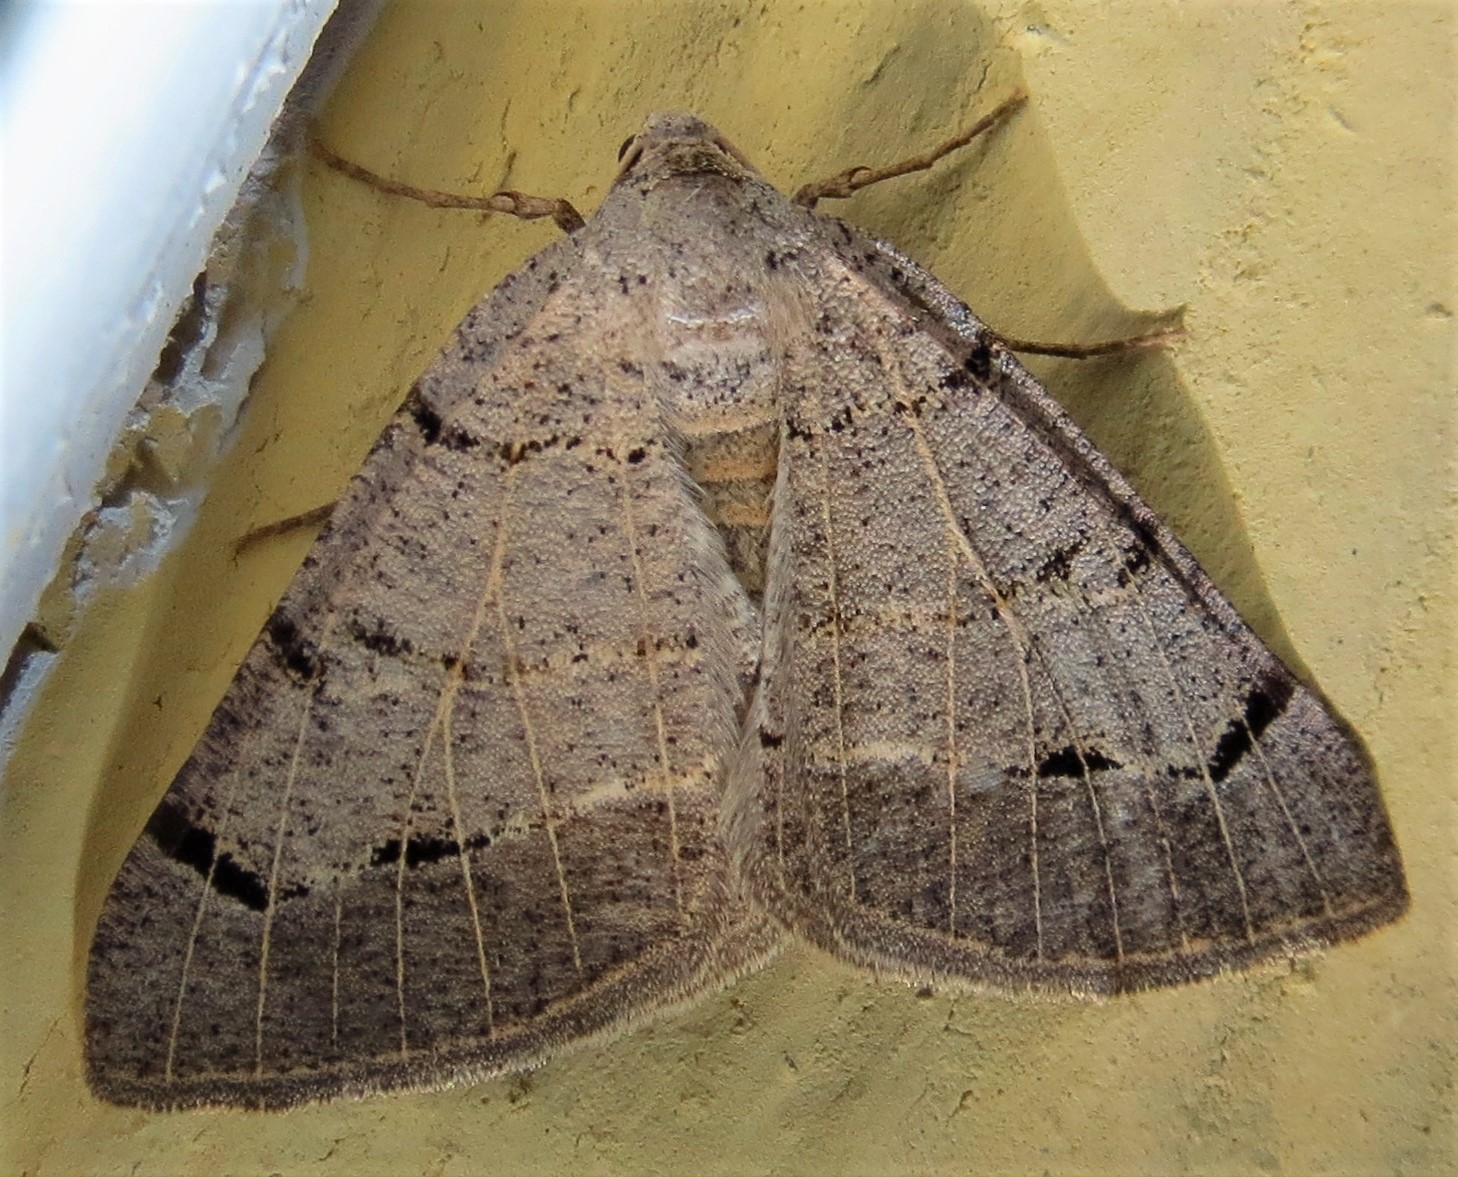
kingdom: Animalia
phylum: Arthropoda
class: Insecta
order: Lepidoptera
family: Geometridae
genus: Isturgia
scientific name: Isturgia dislocaria
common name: Pale-viened enconista
